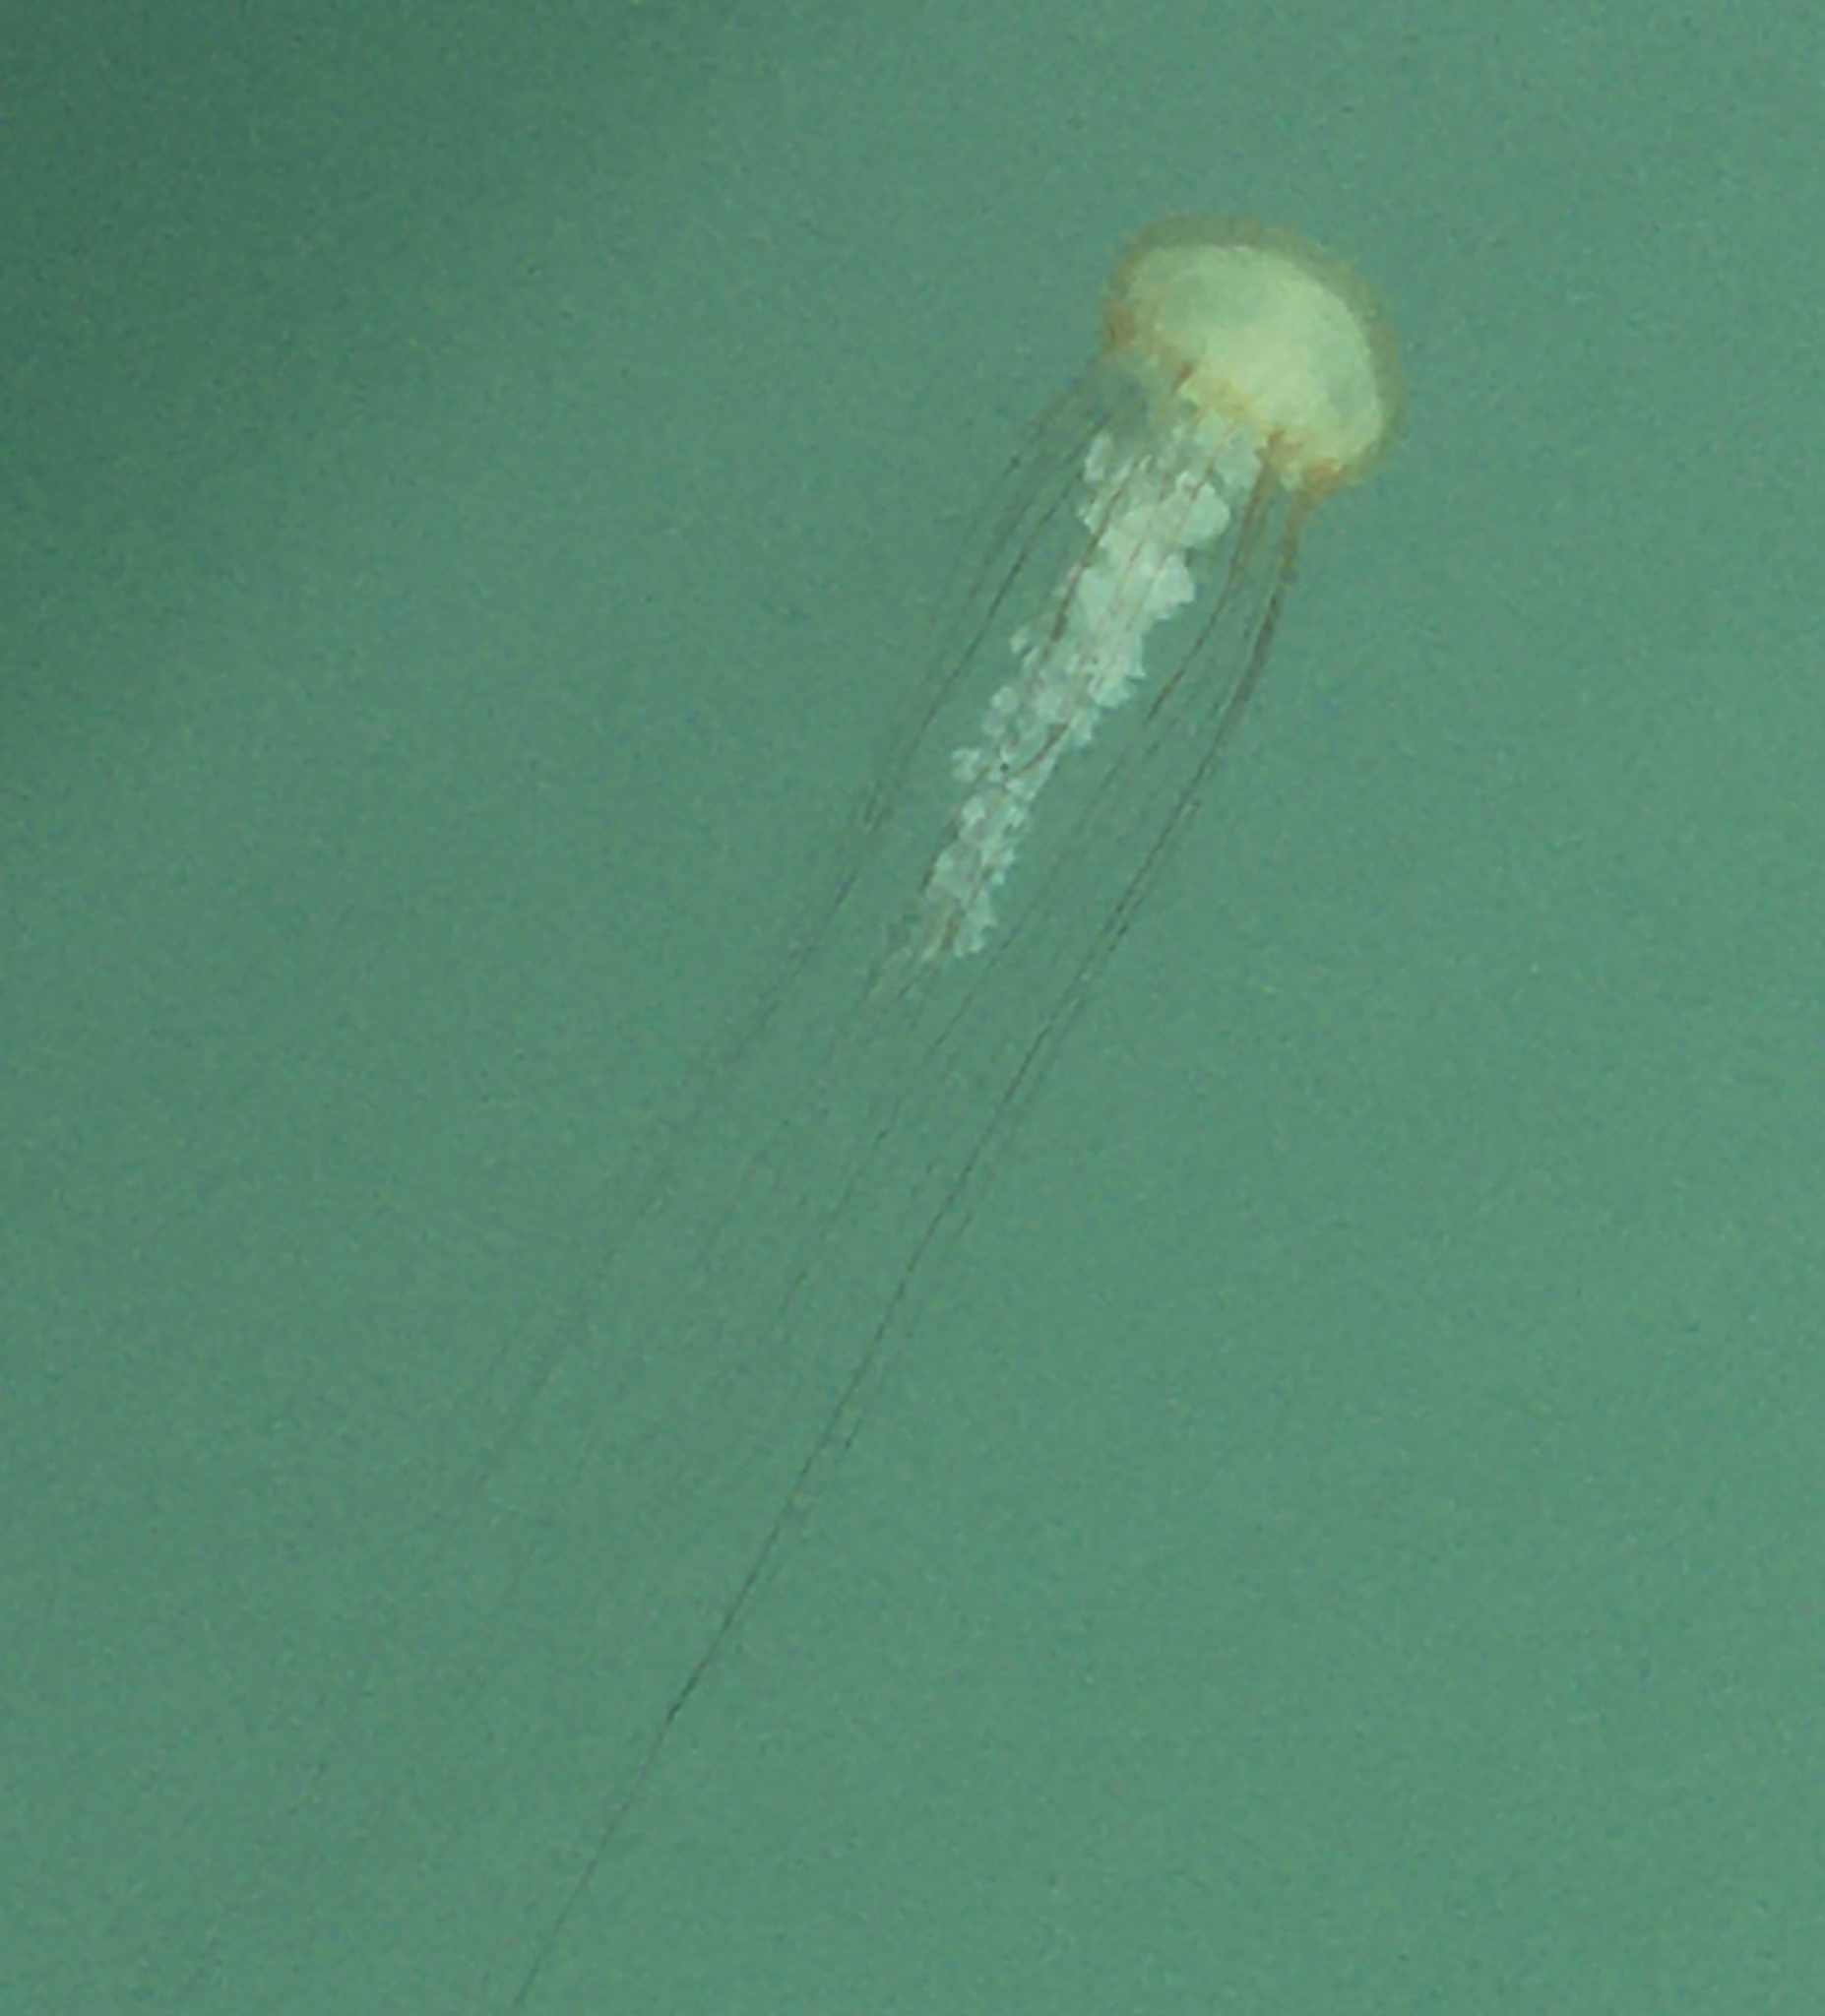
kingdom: Animalia
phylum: Cnidaria
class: Scyphozoa
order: Semaeostomeae
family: Pelagiidae
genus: Chrysaora
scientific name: Chrysaora fuscescens
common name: Sea nettle
